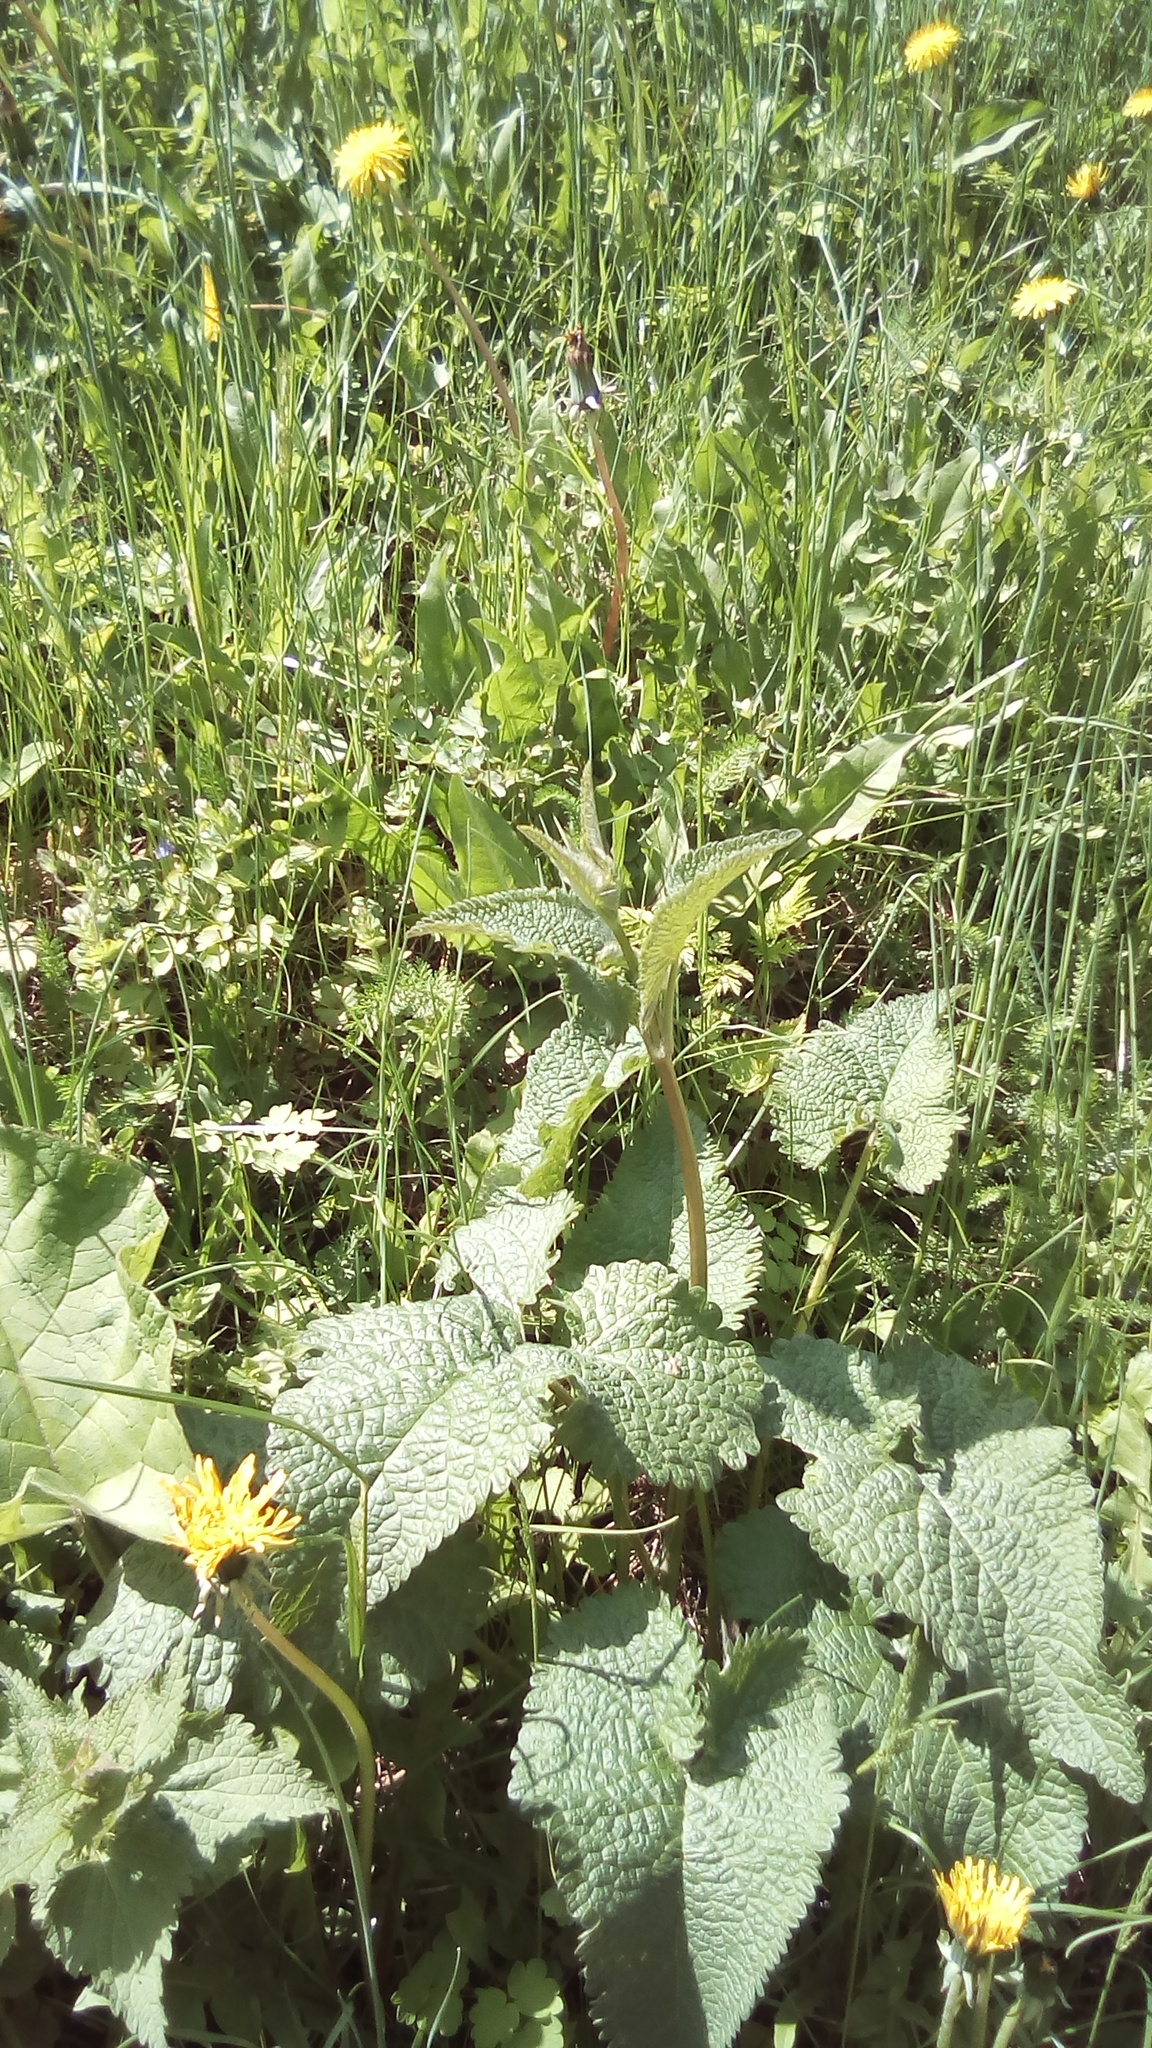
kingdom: Plantae
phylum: Tracheophyta
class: Magnoliopsida
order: Lamiales
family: Lamiaceae
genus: Phlomoides
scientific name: Phlomoides tuberosa
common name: Tuberous jerusalem sage
